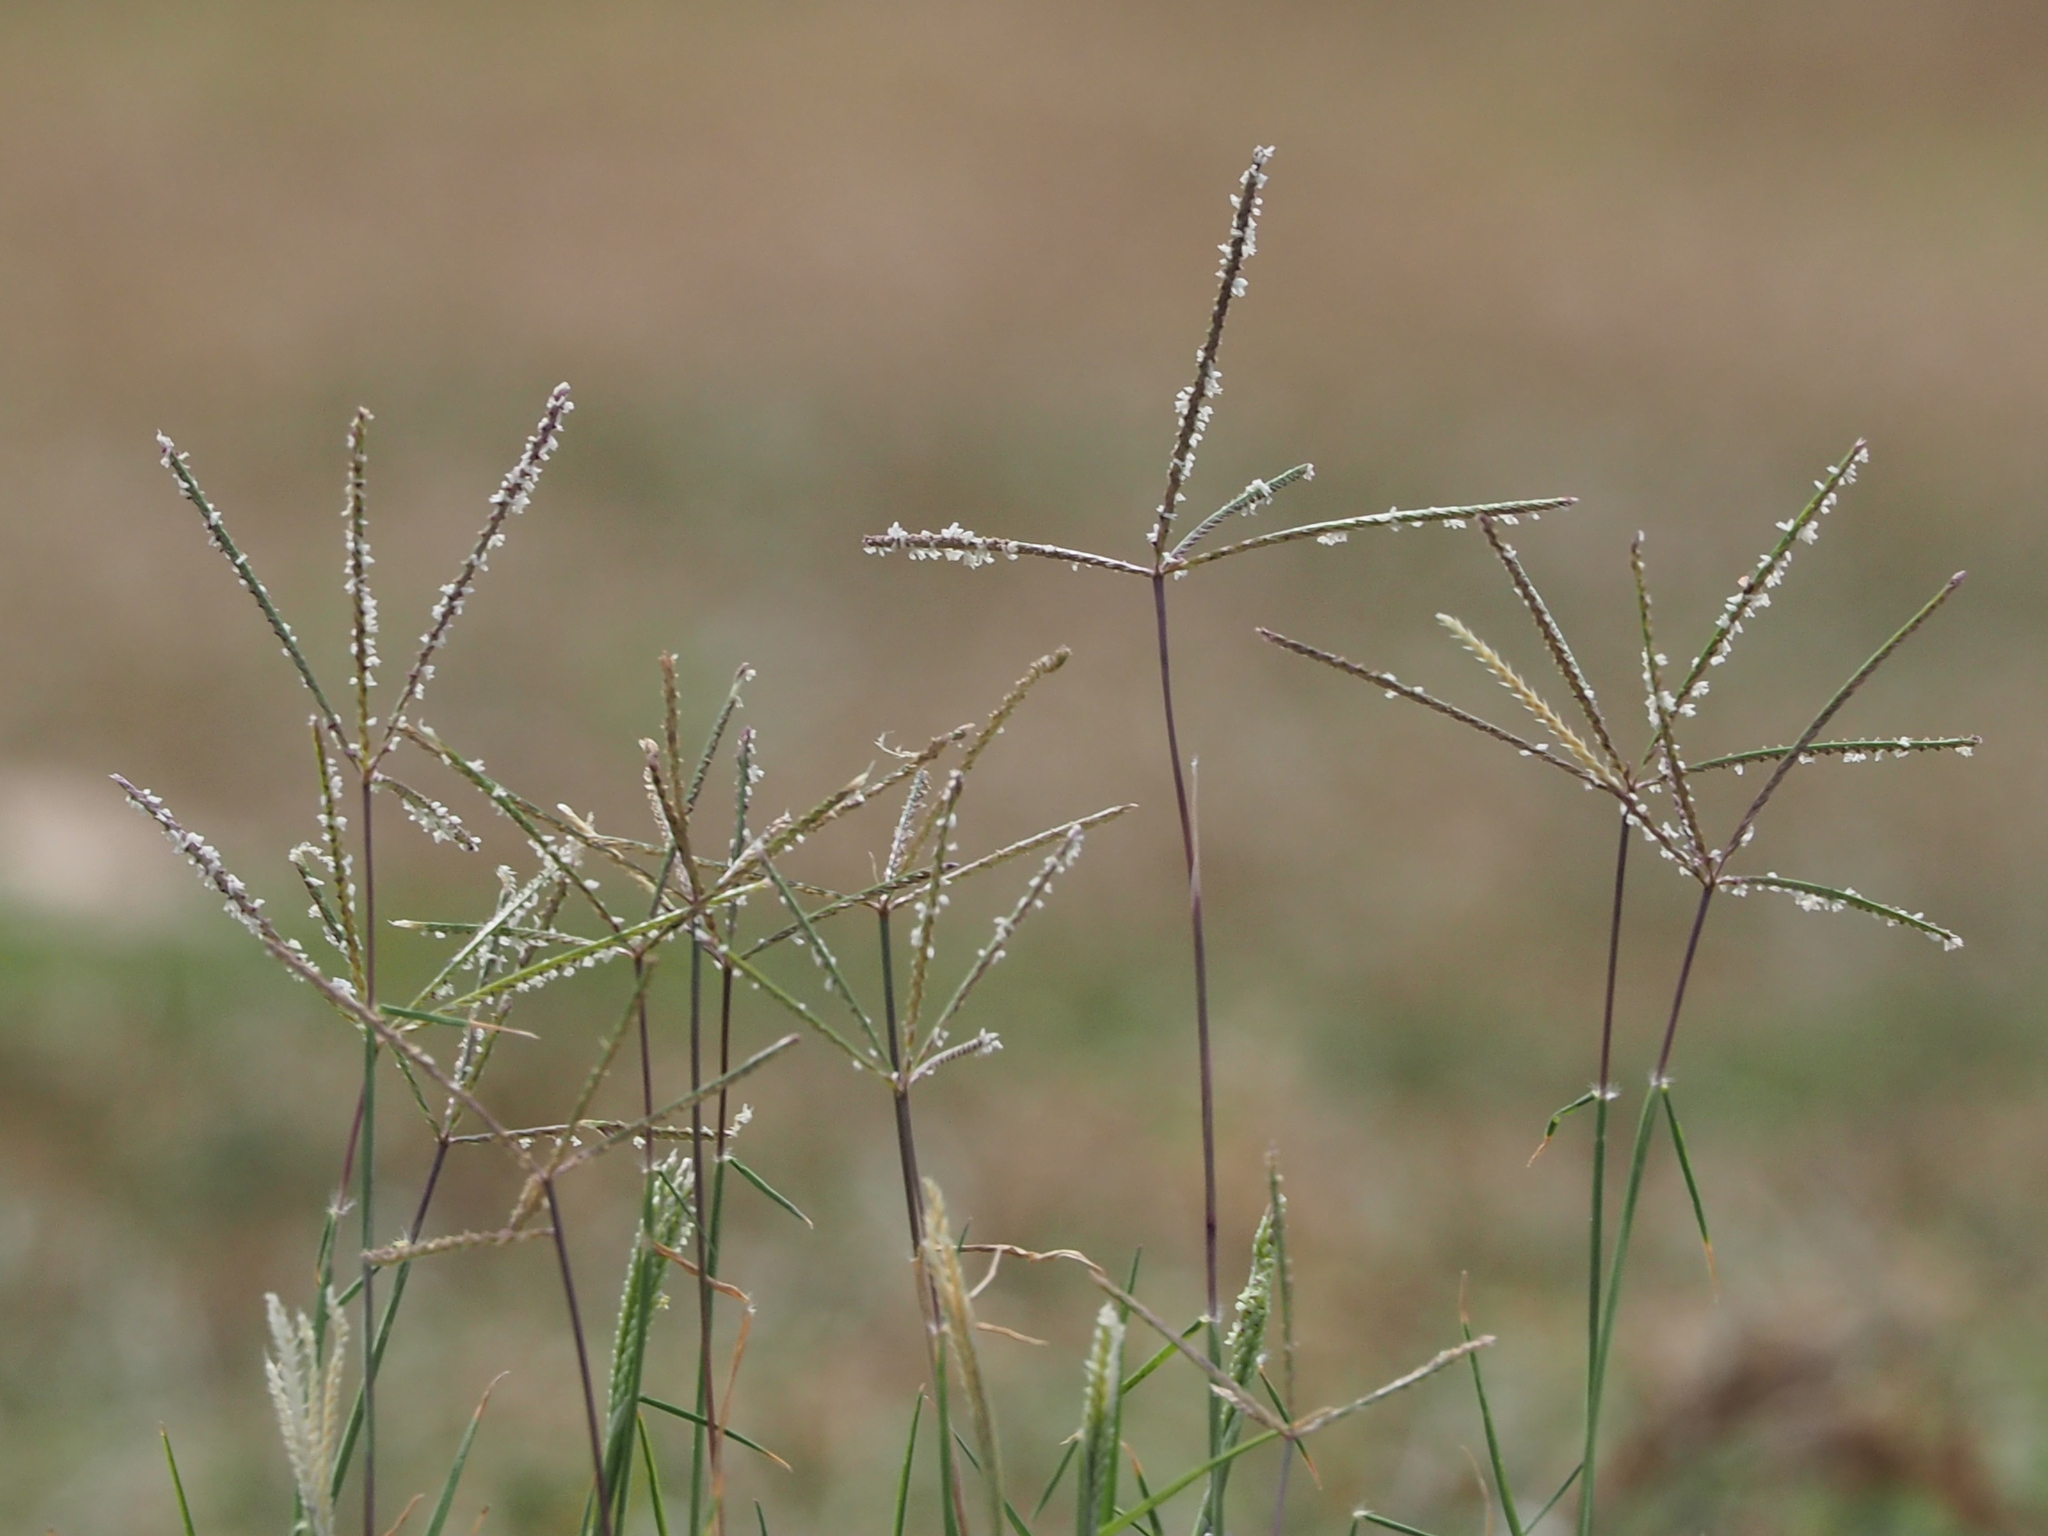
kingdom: Plantae
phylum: Tracheophyta
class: Liliopsida
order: Poales
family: Poaceae
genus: Cynodon
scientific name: Cynodon dactylon
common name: Bermuda grass
